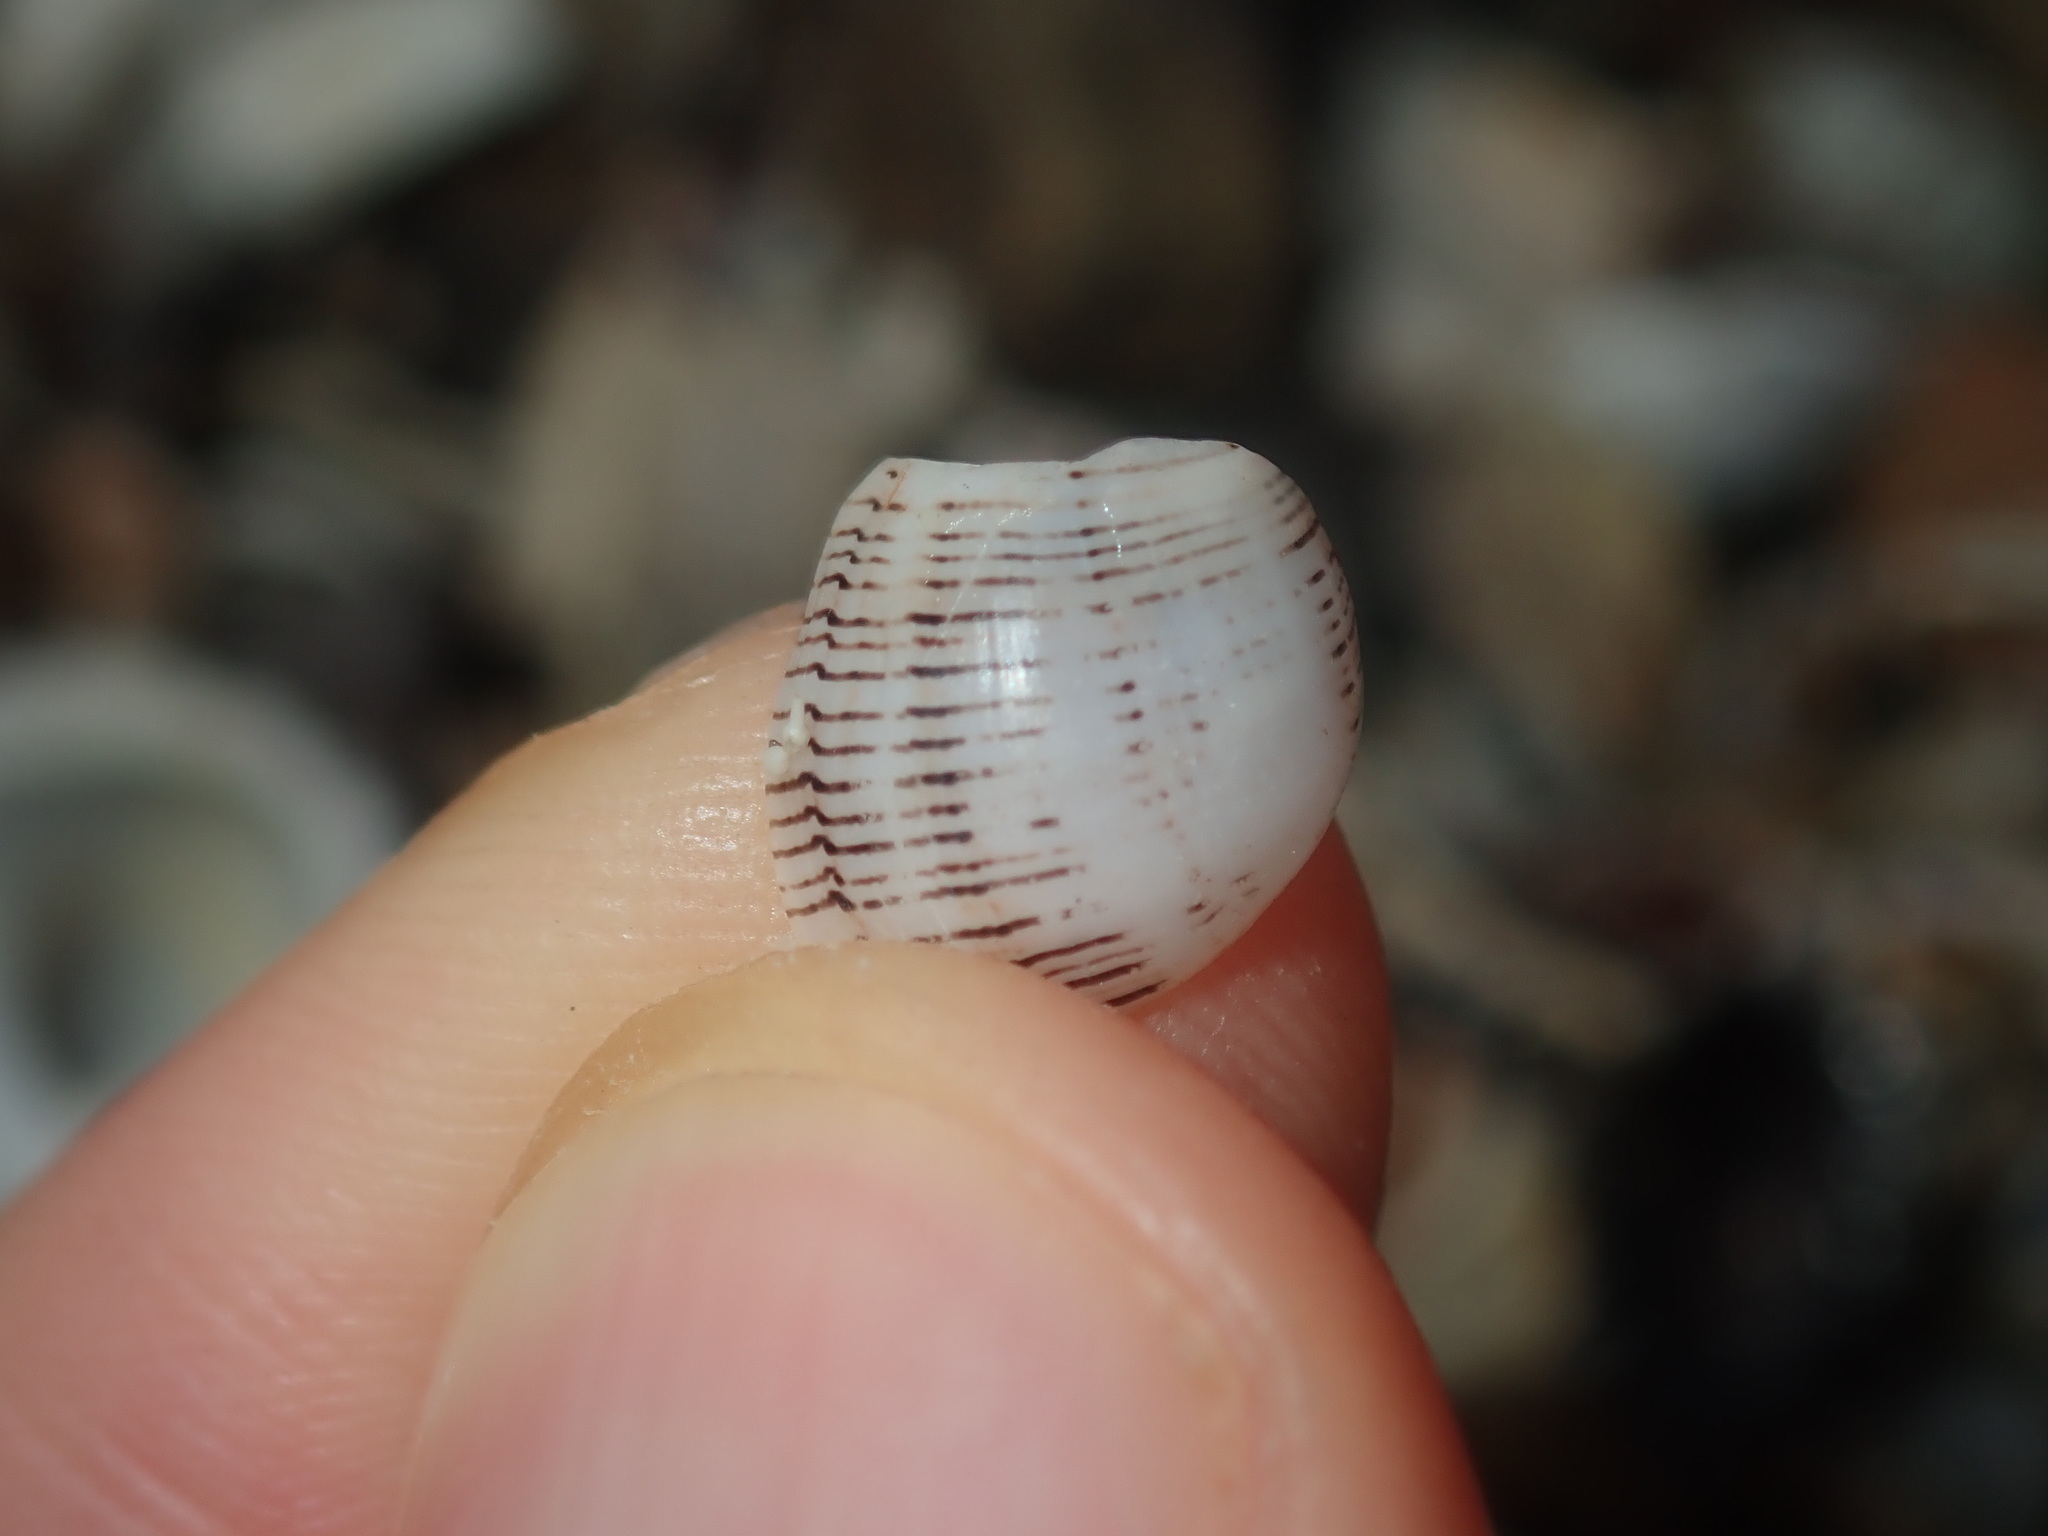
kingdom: Animalia
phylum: Mollusca
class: Gastropoda
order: Cephalaspidea
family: Aplustridae
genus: Hydatina
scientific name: Hydatina physis
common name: Brown-line paperbubble
